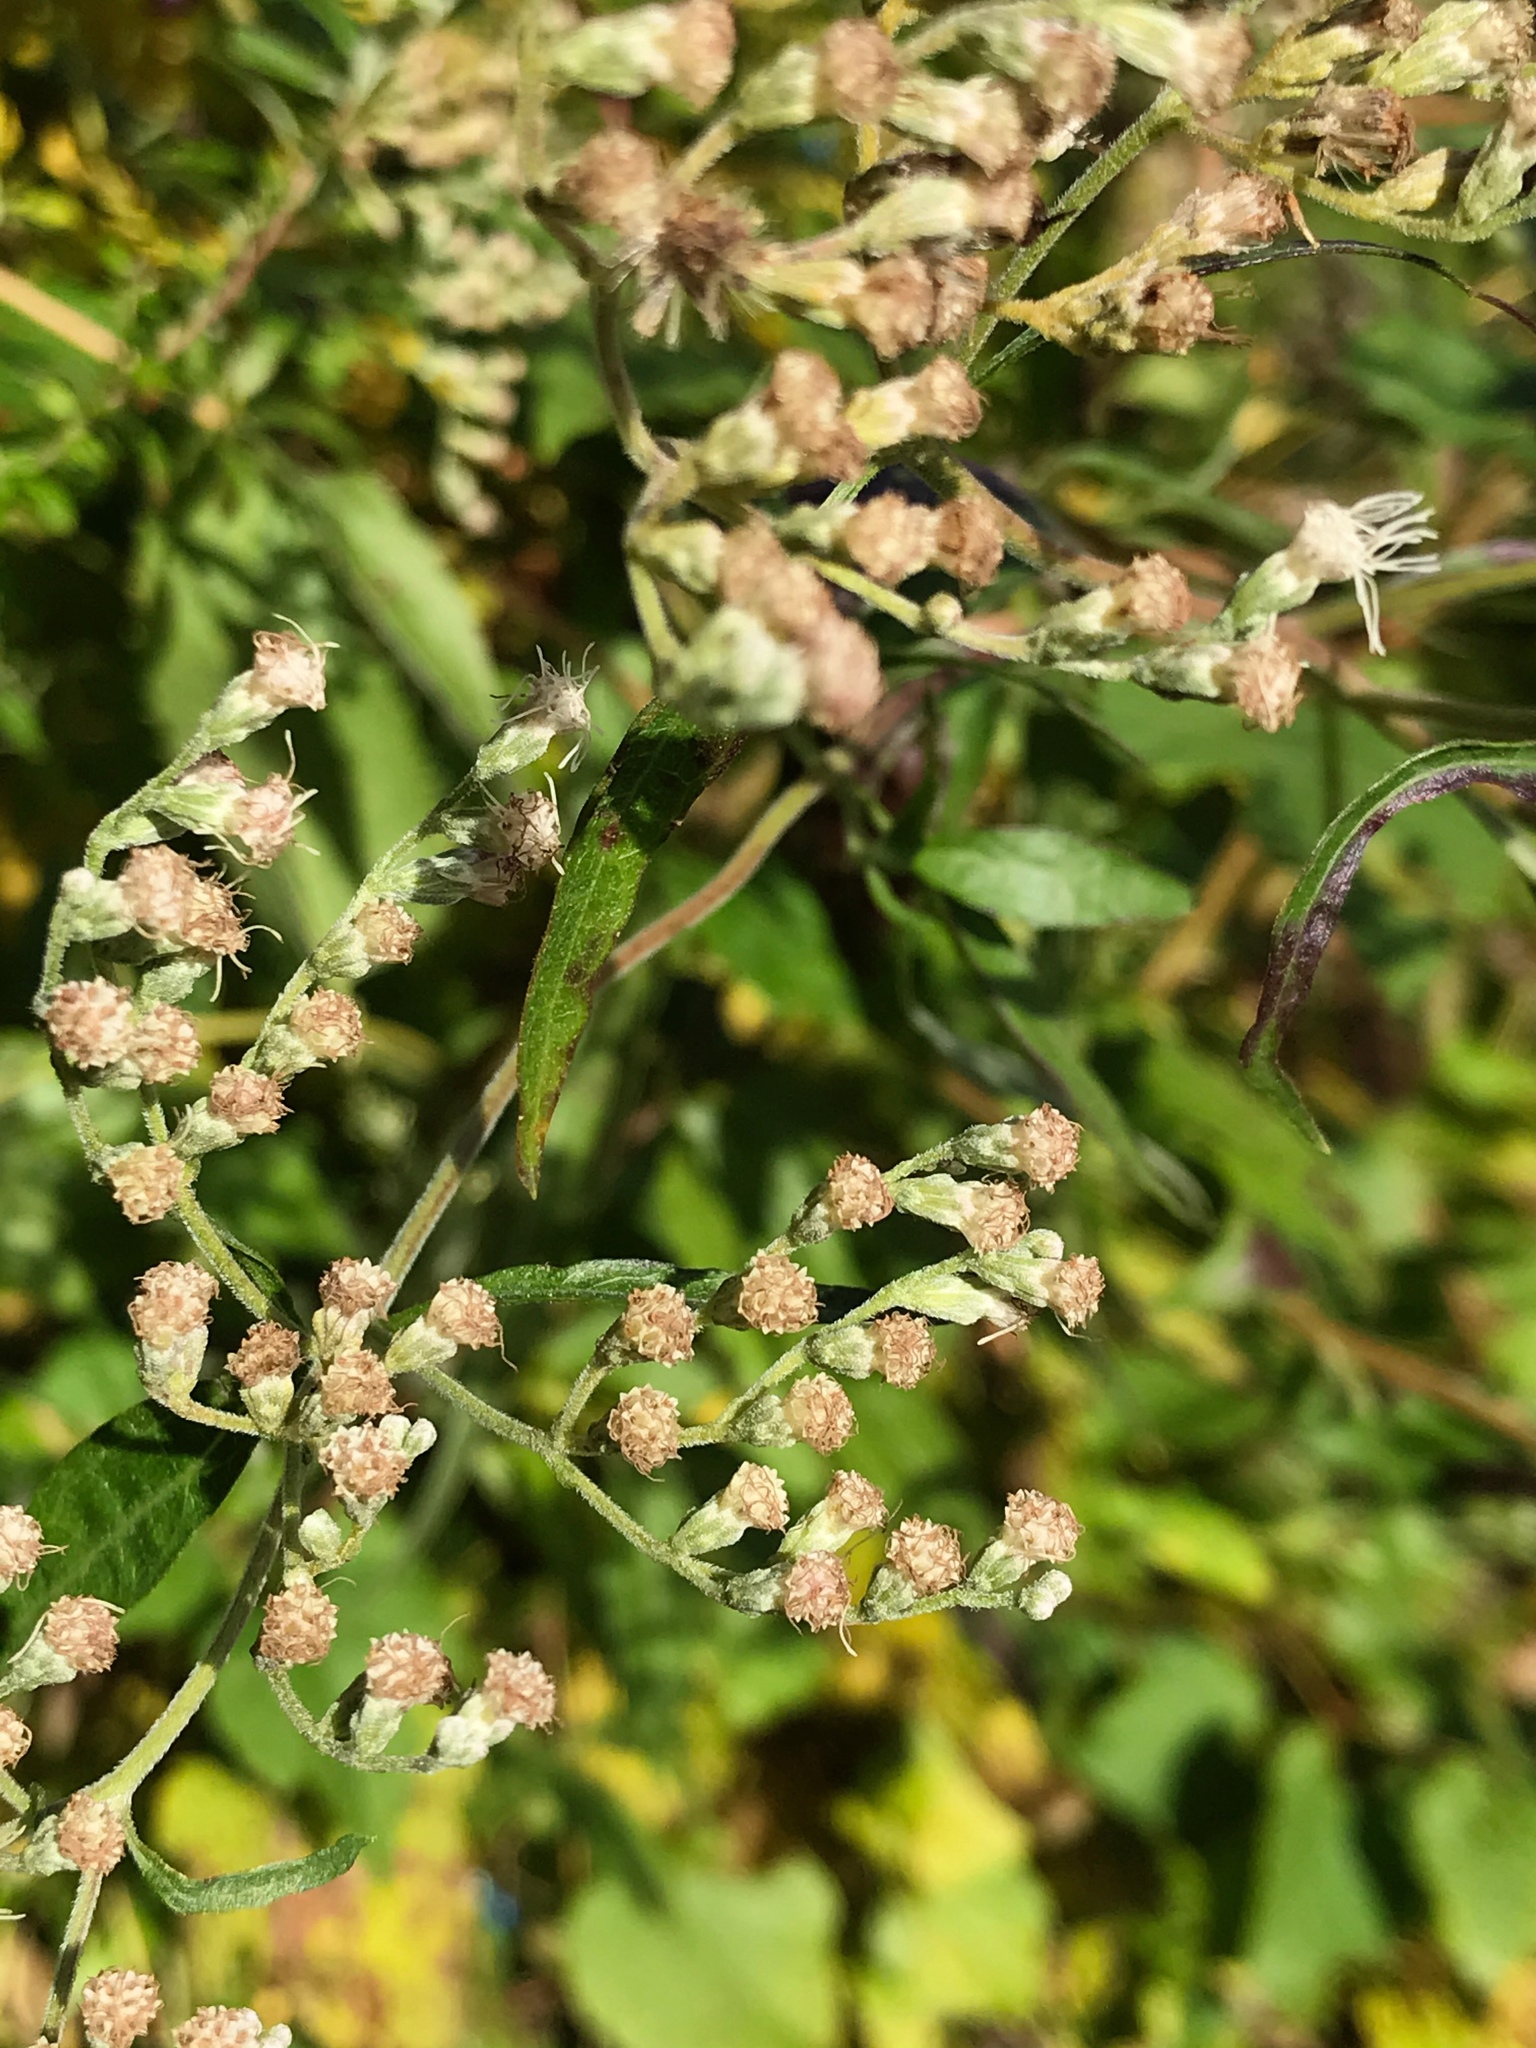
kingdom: Plantae
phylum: Tracheophyta
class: Magnoliopsida
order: Asterales
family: Asteraceae
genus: Eupatorium
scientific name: Eupatorium serotinum
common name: Late boneset
